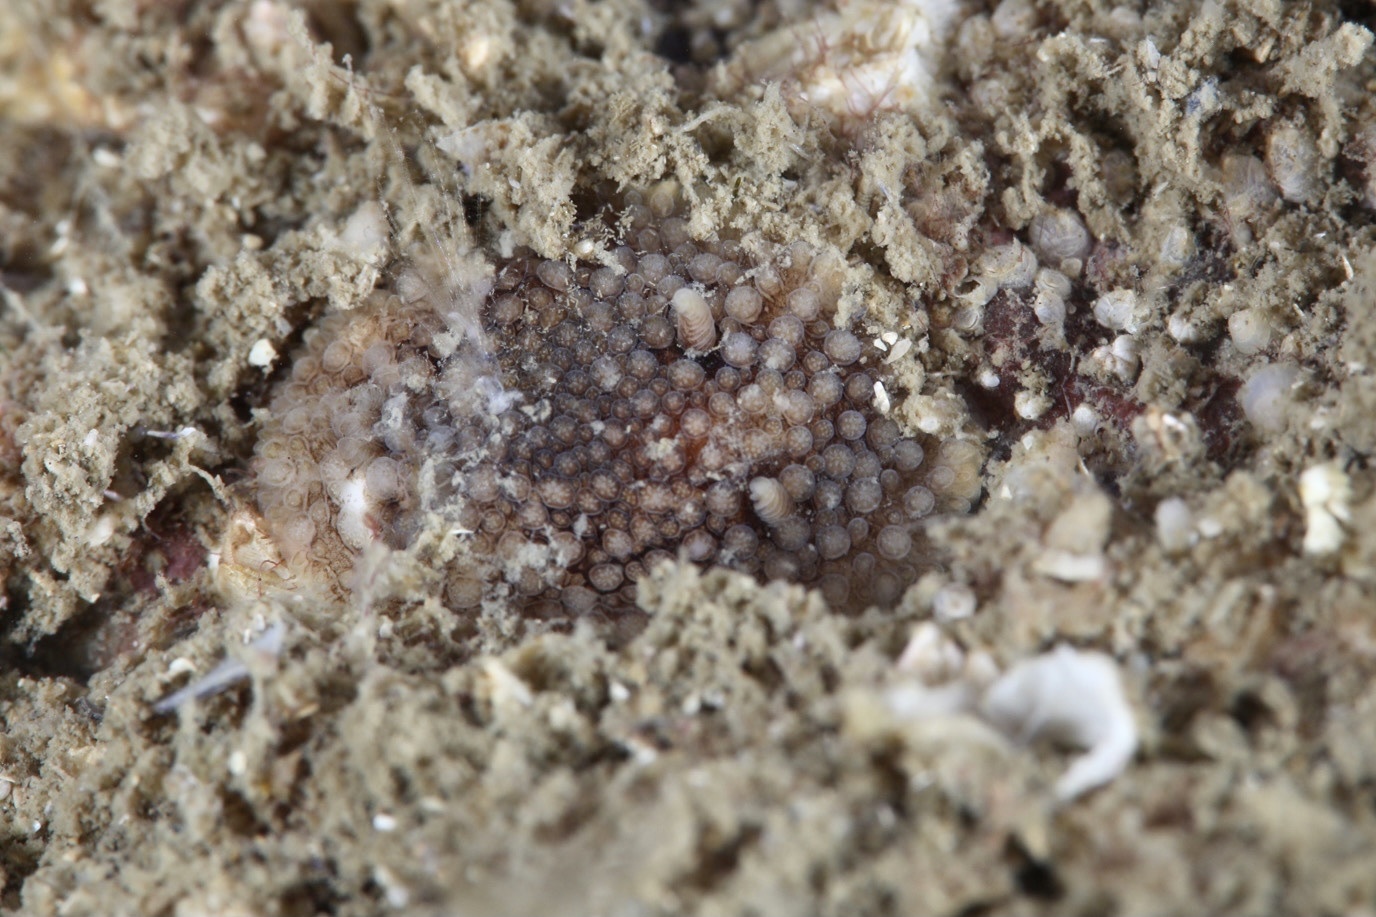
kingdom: Animalia
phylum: Mollusca
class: Gastropoda
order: Nudibranchia
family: Onchidorididae
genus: Onchidoris
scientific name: Onchidoris bilamellata
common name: Barnacle-eating onchidoris
